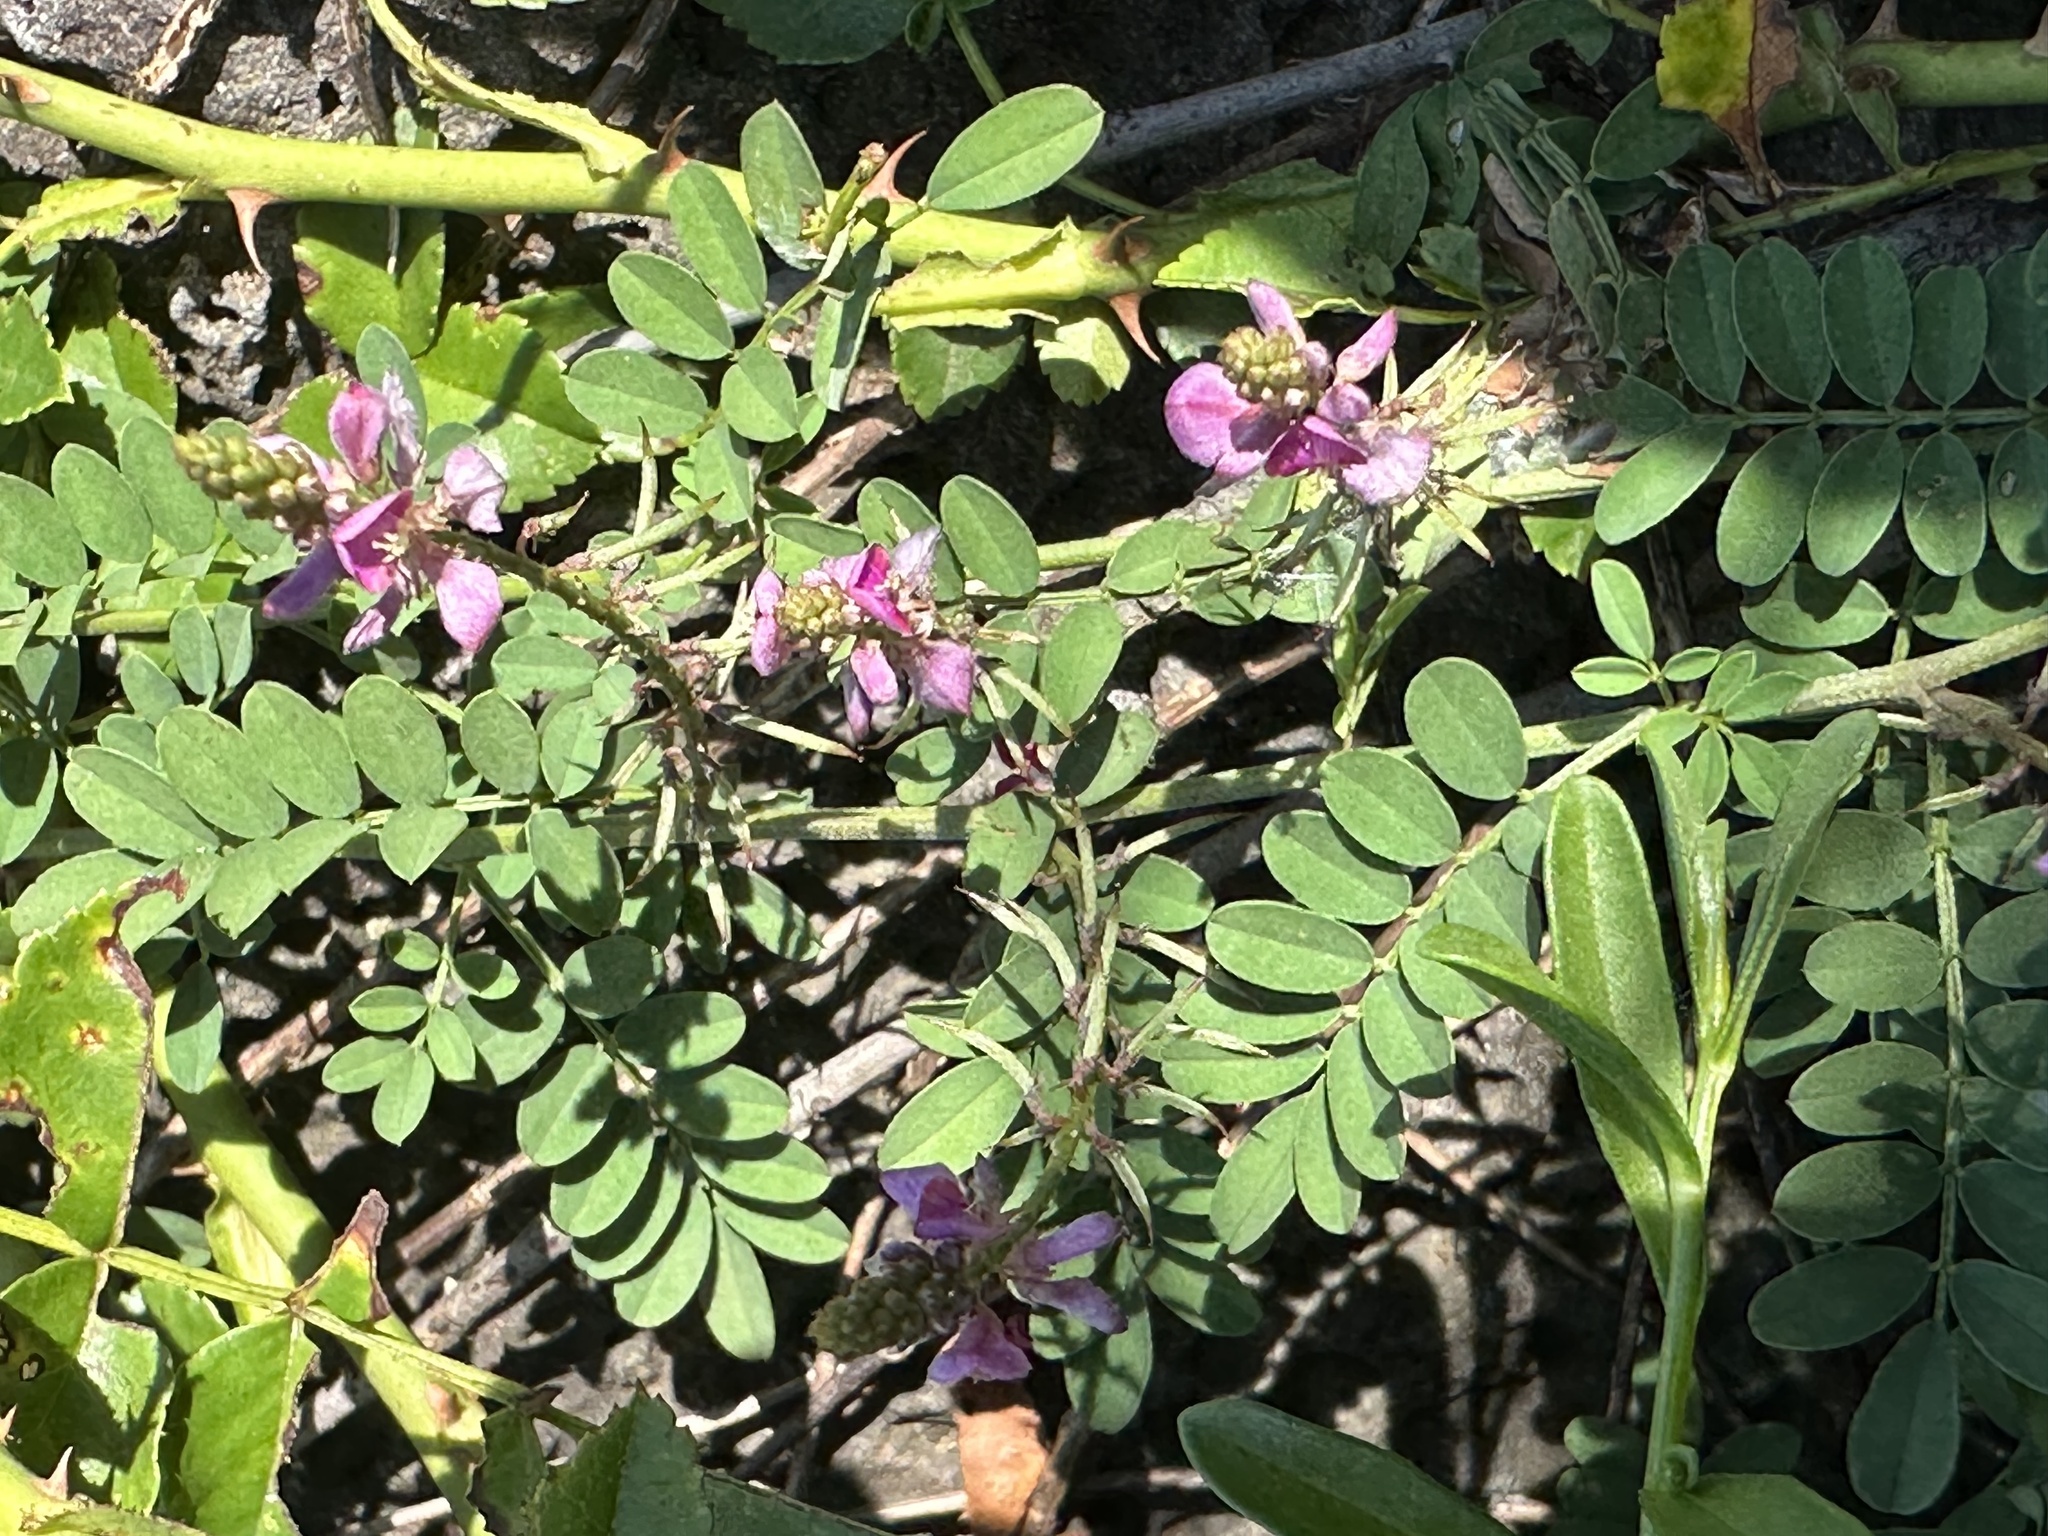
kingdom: Plantae
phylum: Tracheophyta
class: Magnoliopsida
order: Fabales
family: Fabaceae
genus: Indigofera
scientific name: Indigofera bungeana
